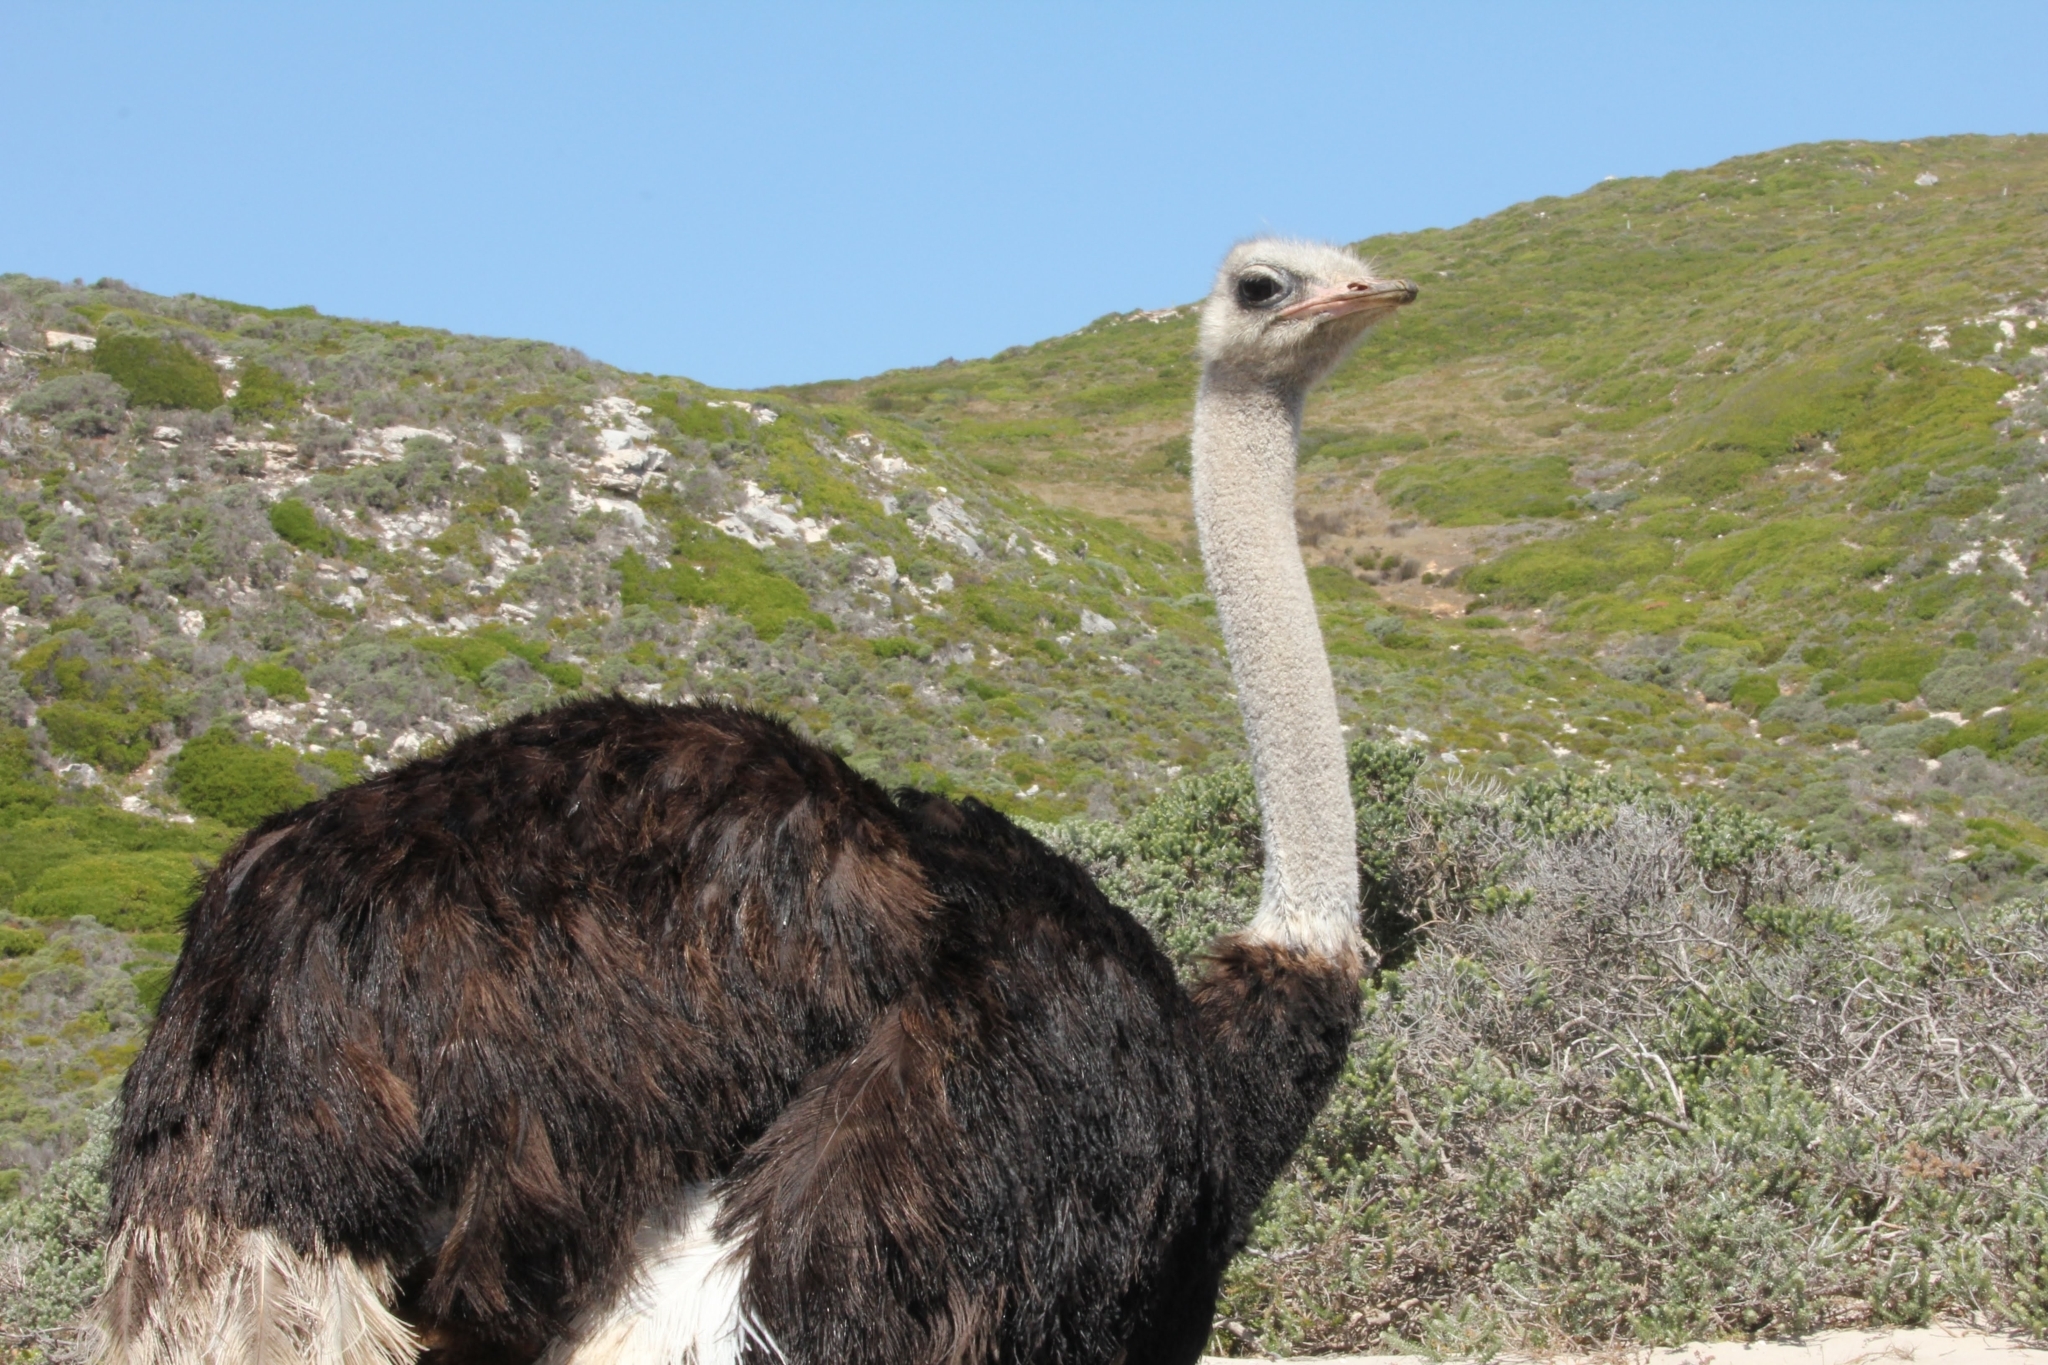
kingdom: Animalia
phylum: Chordata
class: Aves
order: Struthioniformes
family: Struthionidae
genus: Struthio
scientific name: Struthio camelus
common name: Common ostrich
